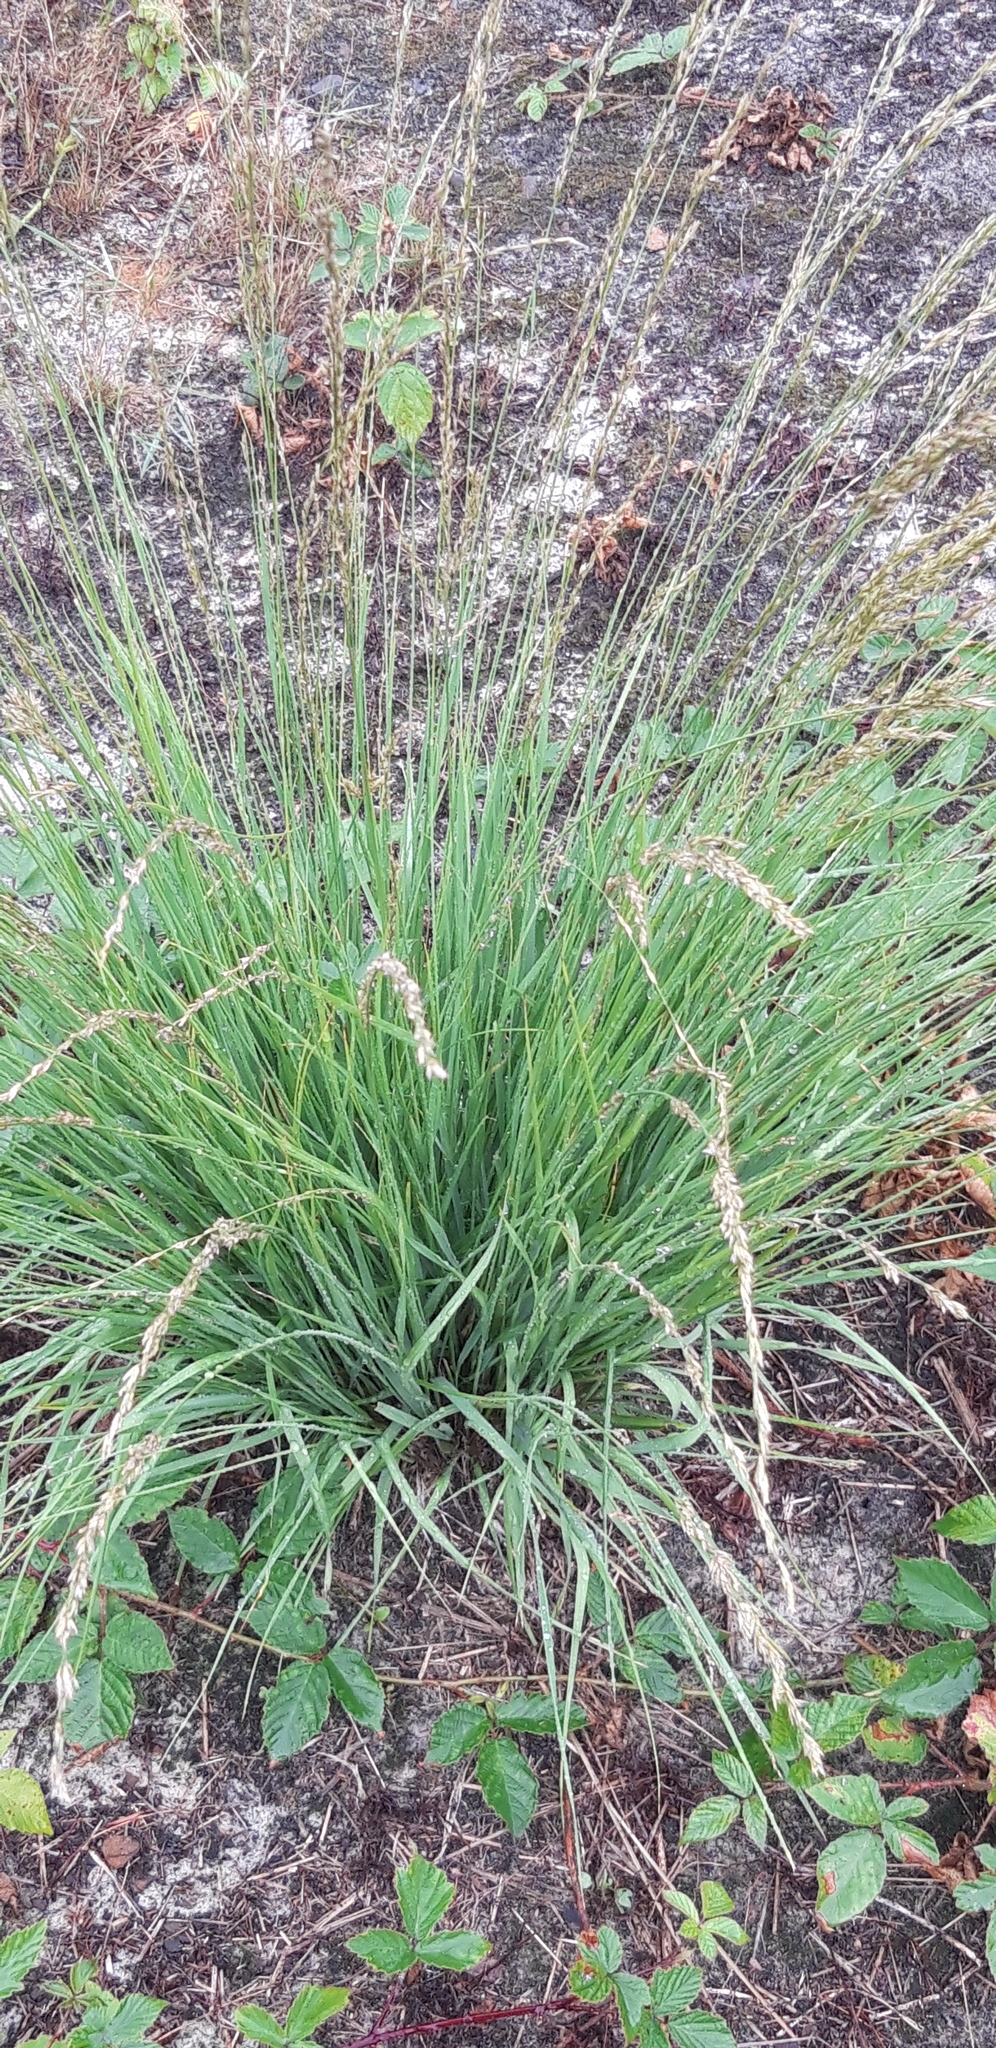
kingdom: Plantae
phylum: Tracheophyta
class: Liliopsida
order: Poales
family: Poaceae
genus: Molinia
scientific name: Molinia caerulea
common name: Purple moor-grass
